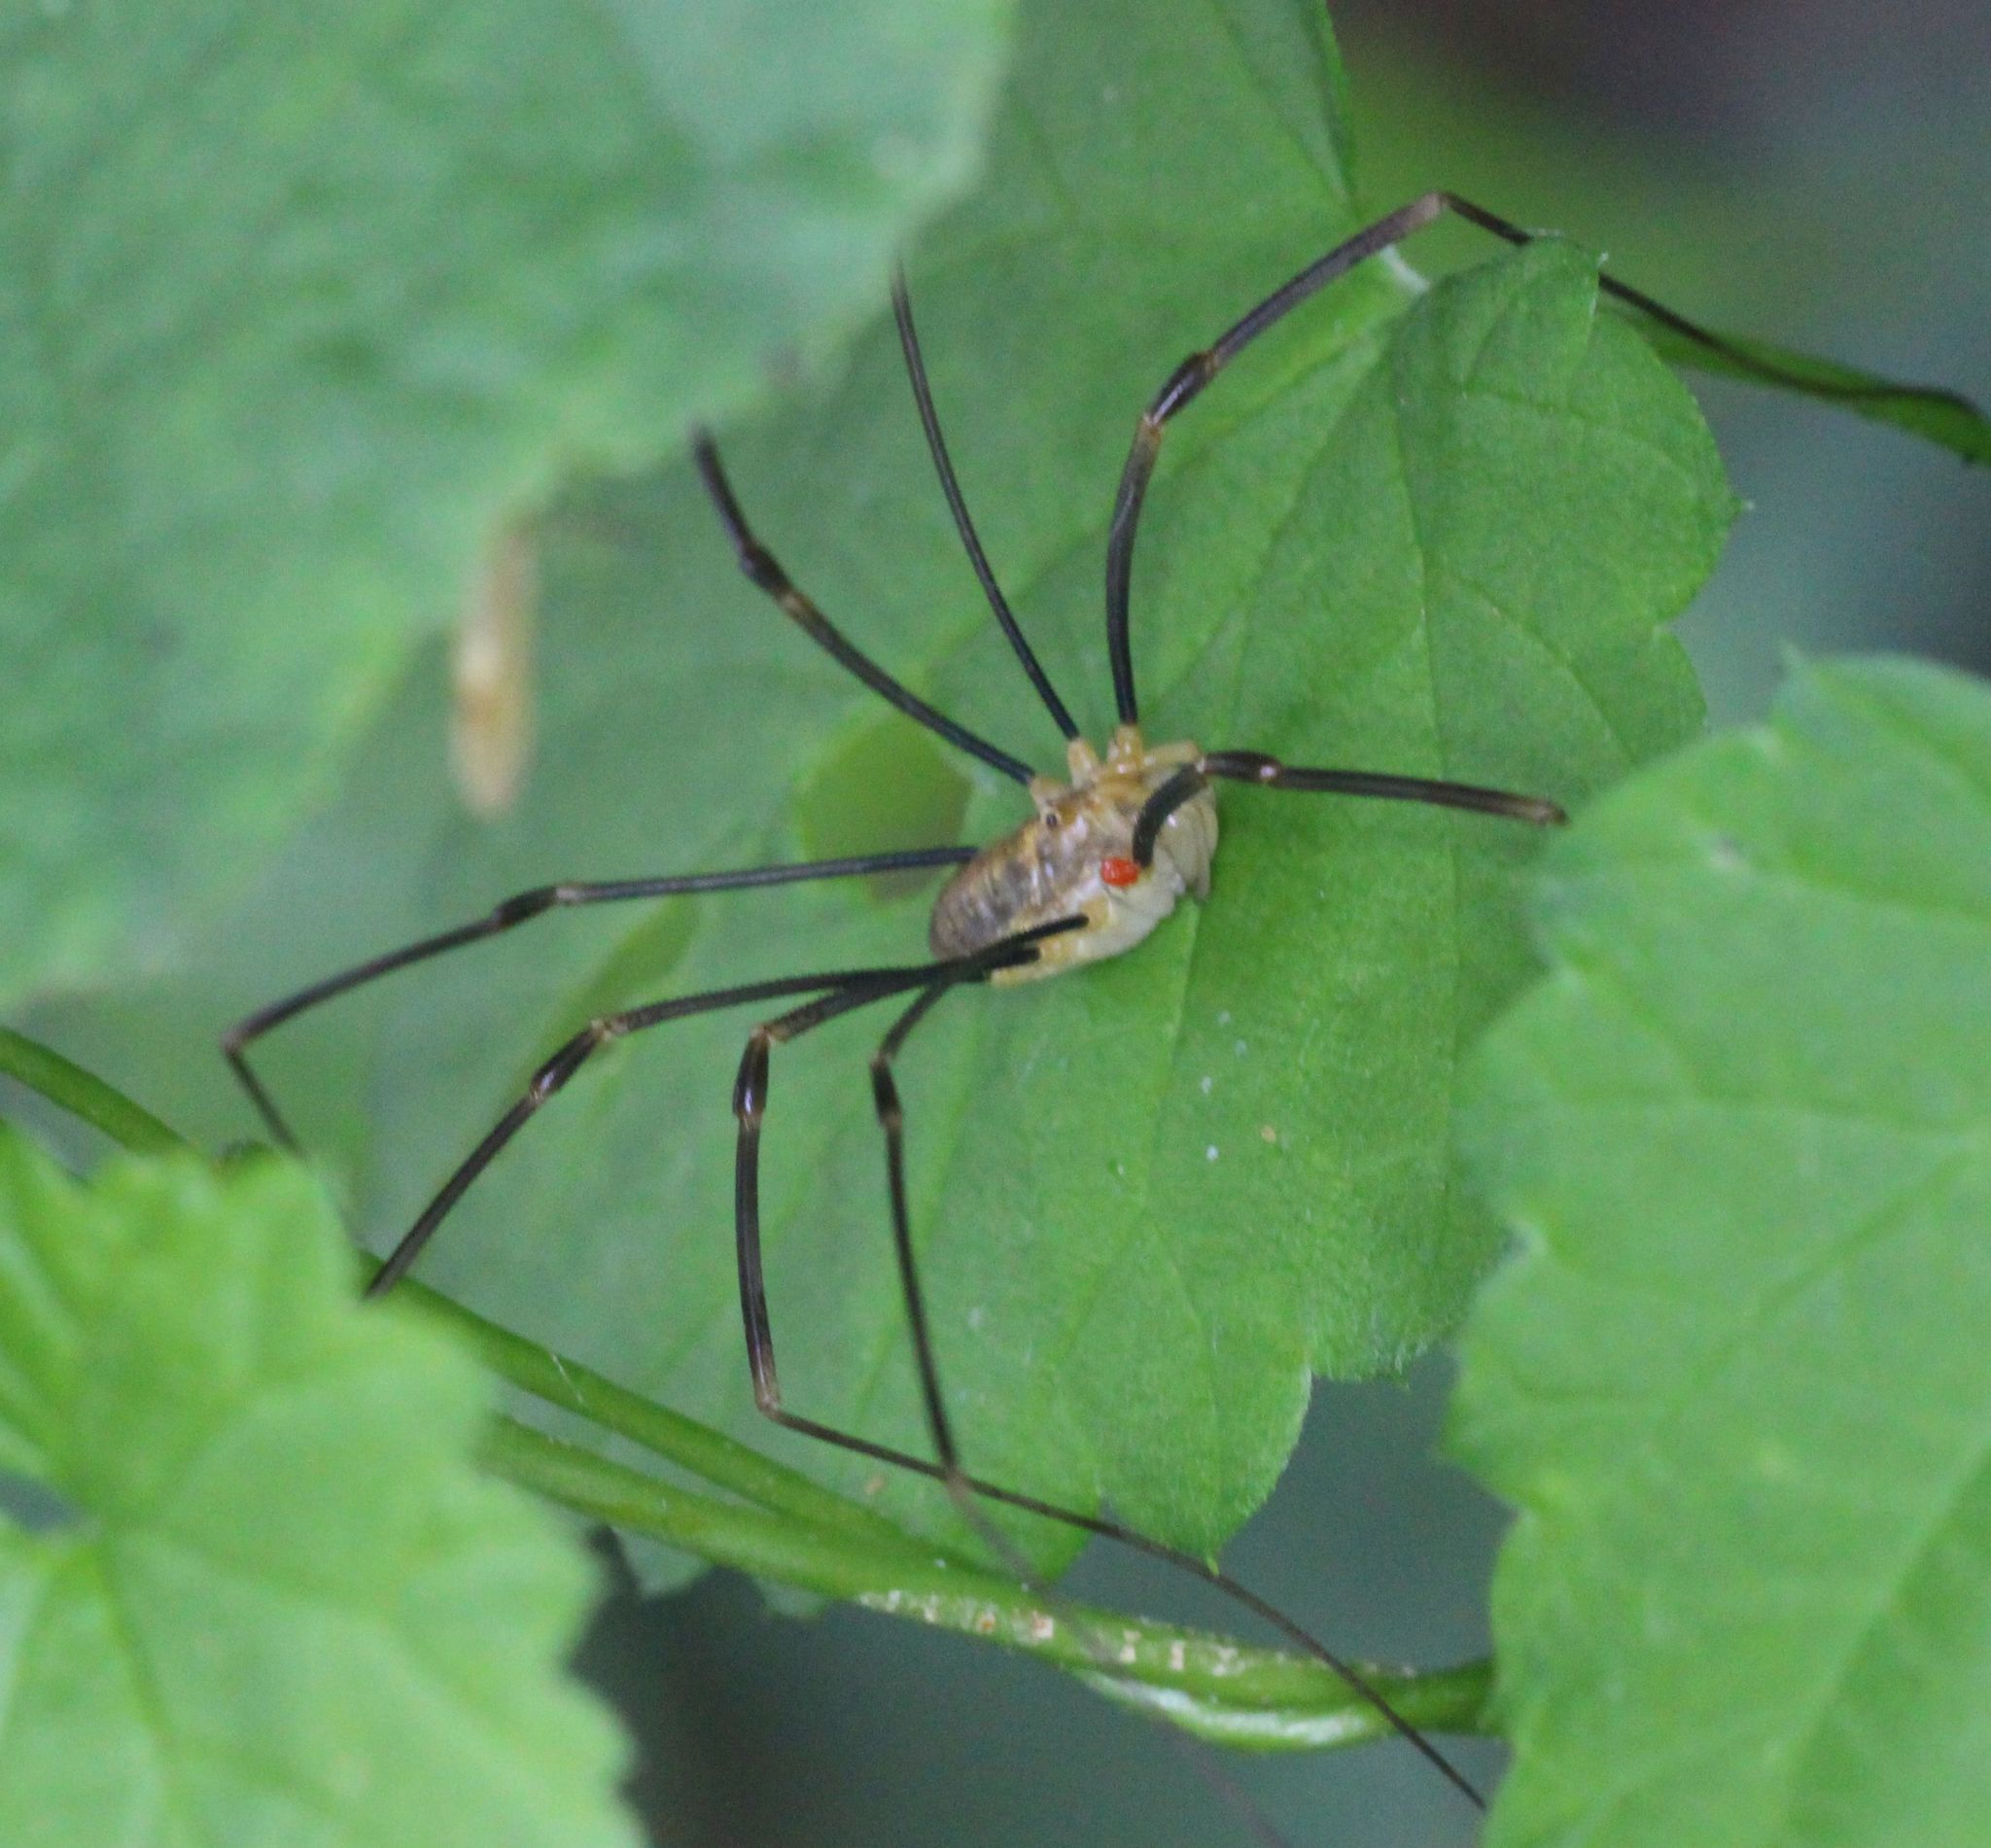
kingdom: Animalia
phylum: Arthropoda
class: Arachnida
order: Opiliones
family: Phalangiidae
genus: Opilio
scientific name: Opilio canestrinii
